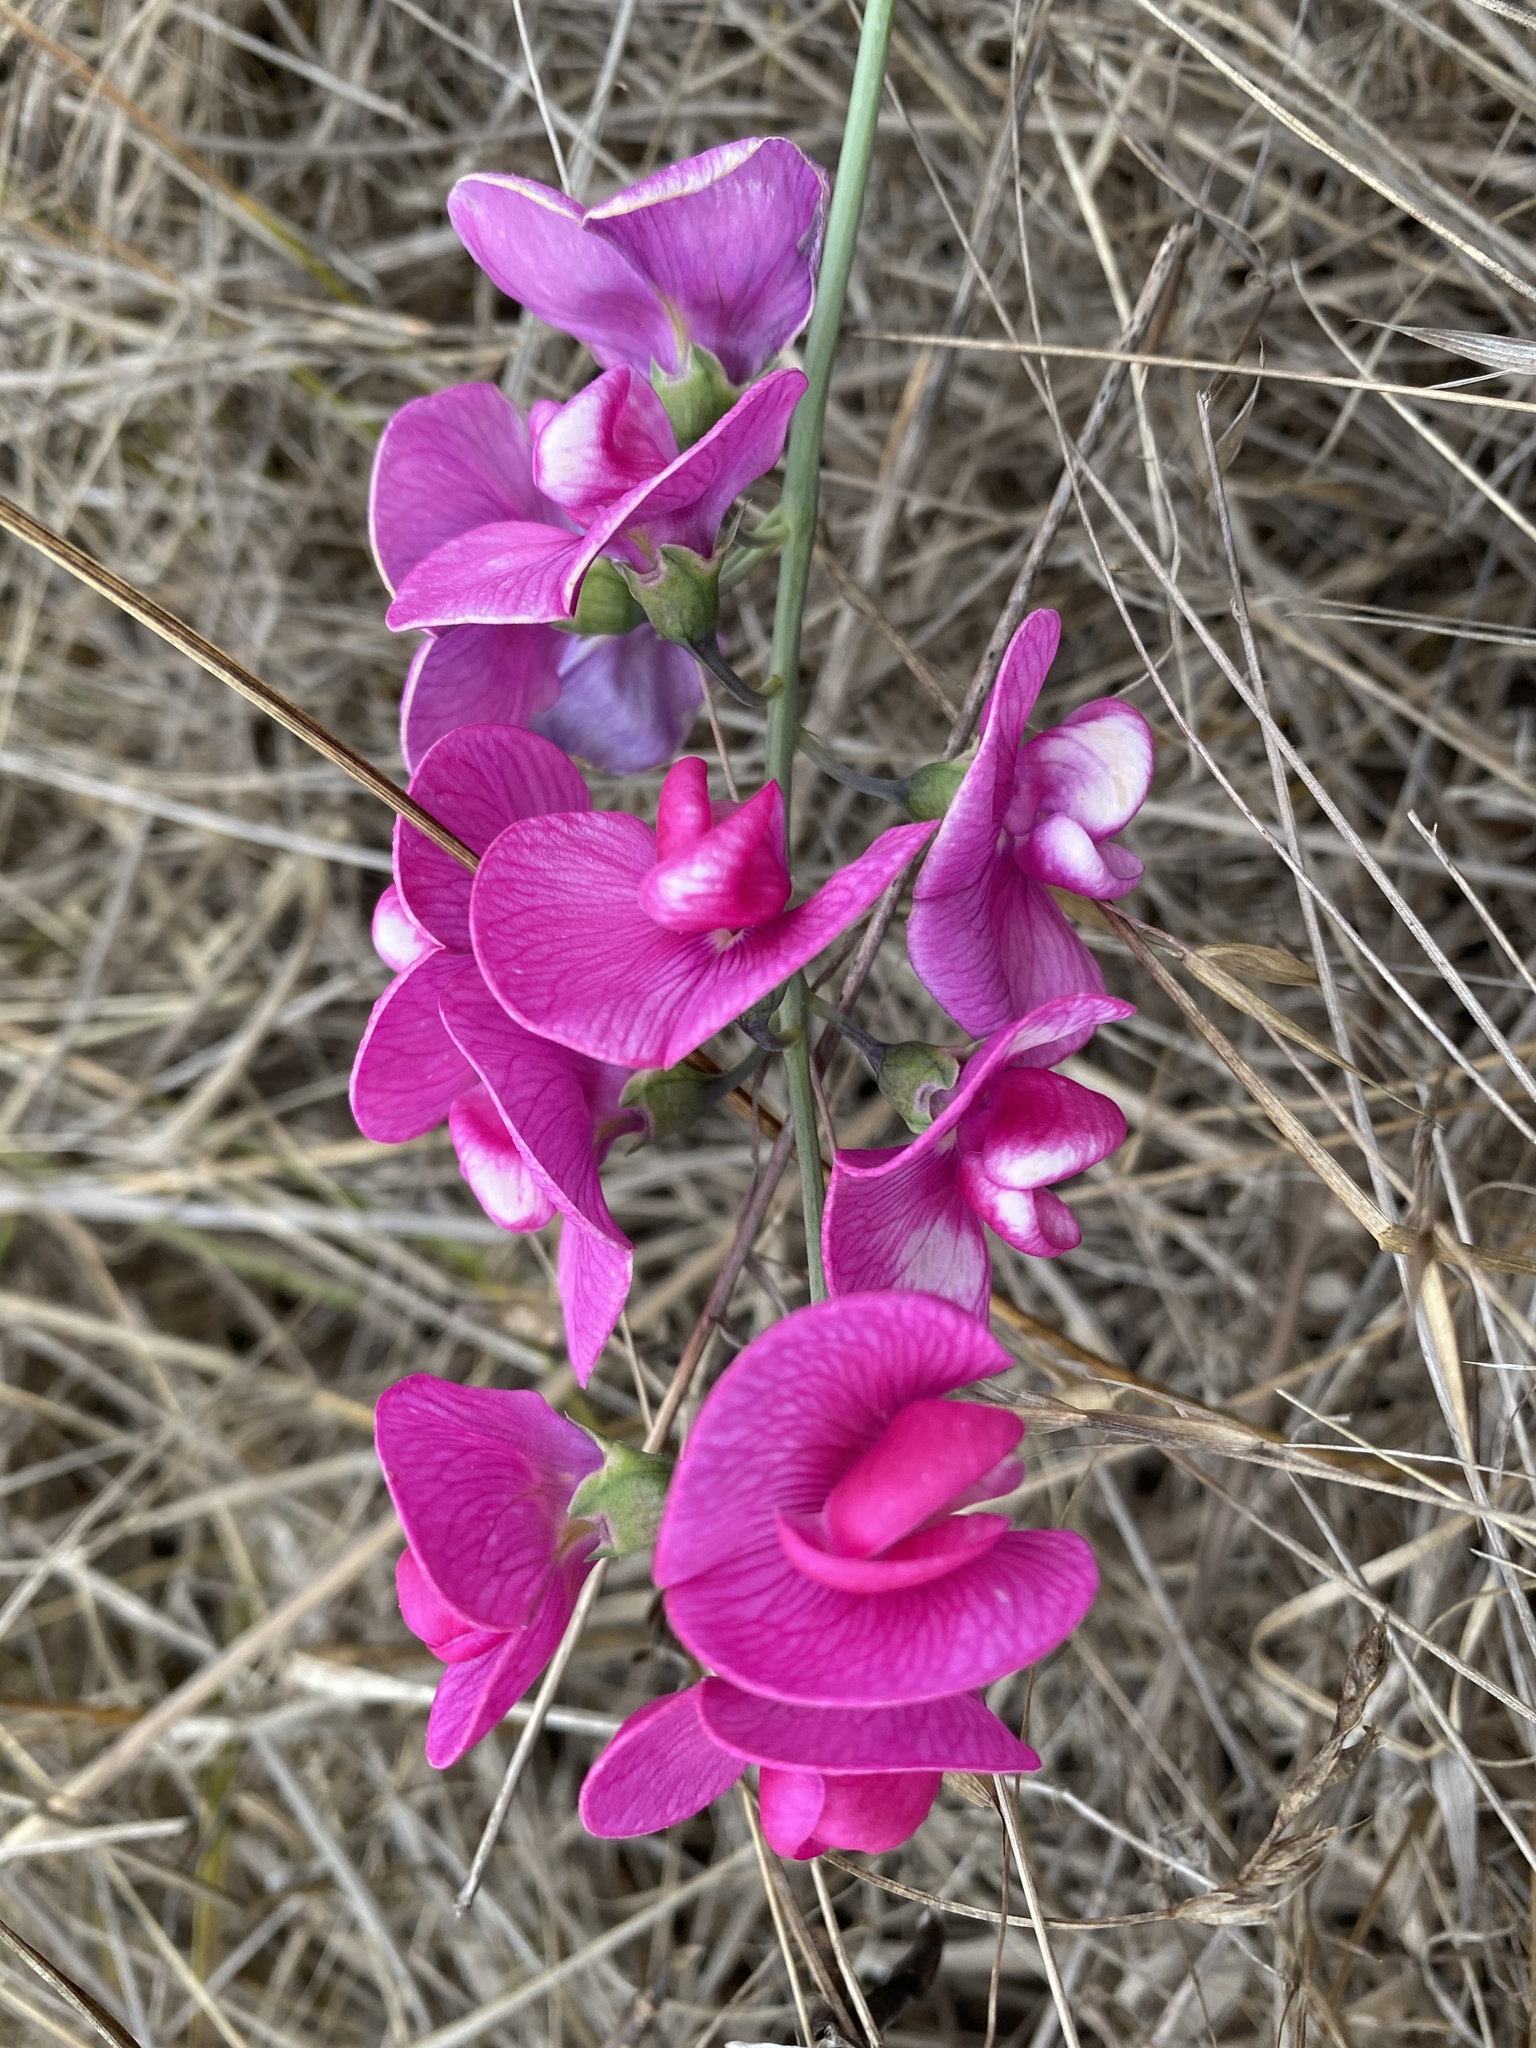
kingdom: Plantae
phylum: Tracheophyta
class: Magnoliopsida
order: Fabales
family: Fabaceae
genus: Lathyrus
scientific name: Lathyrus latifolius
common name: Perennial pea
